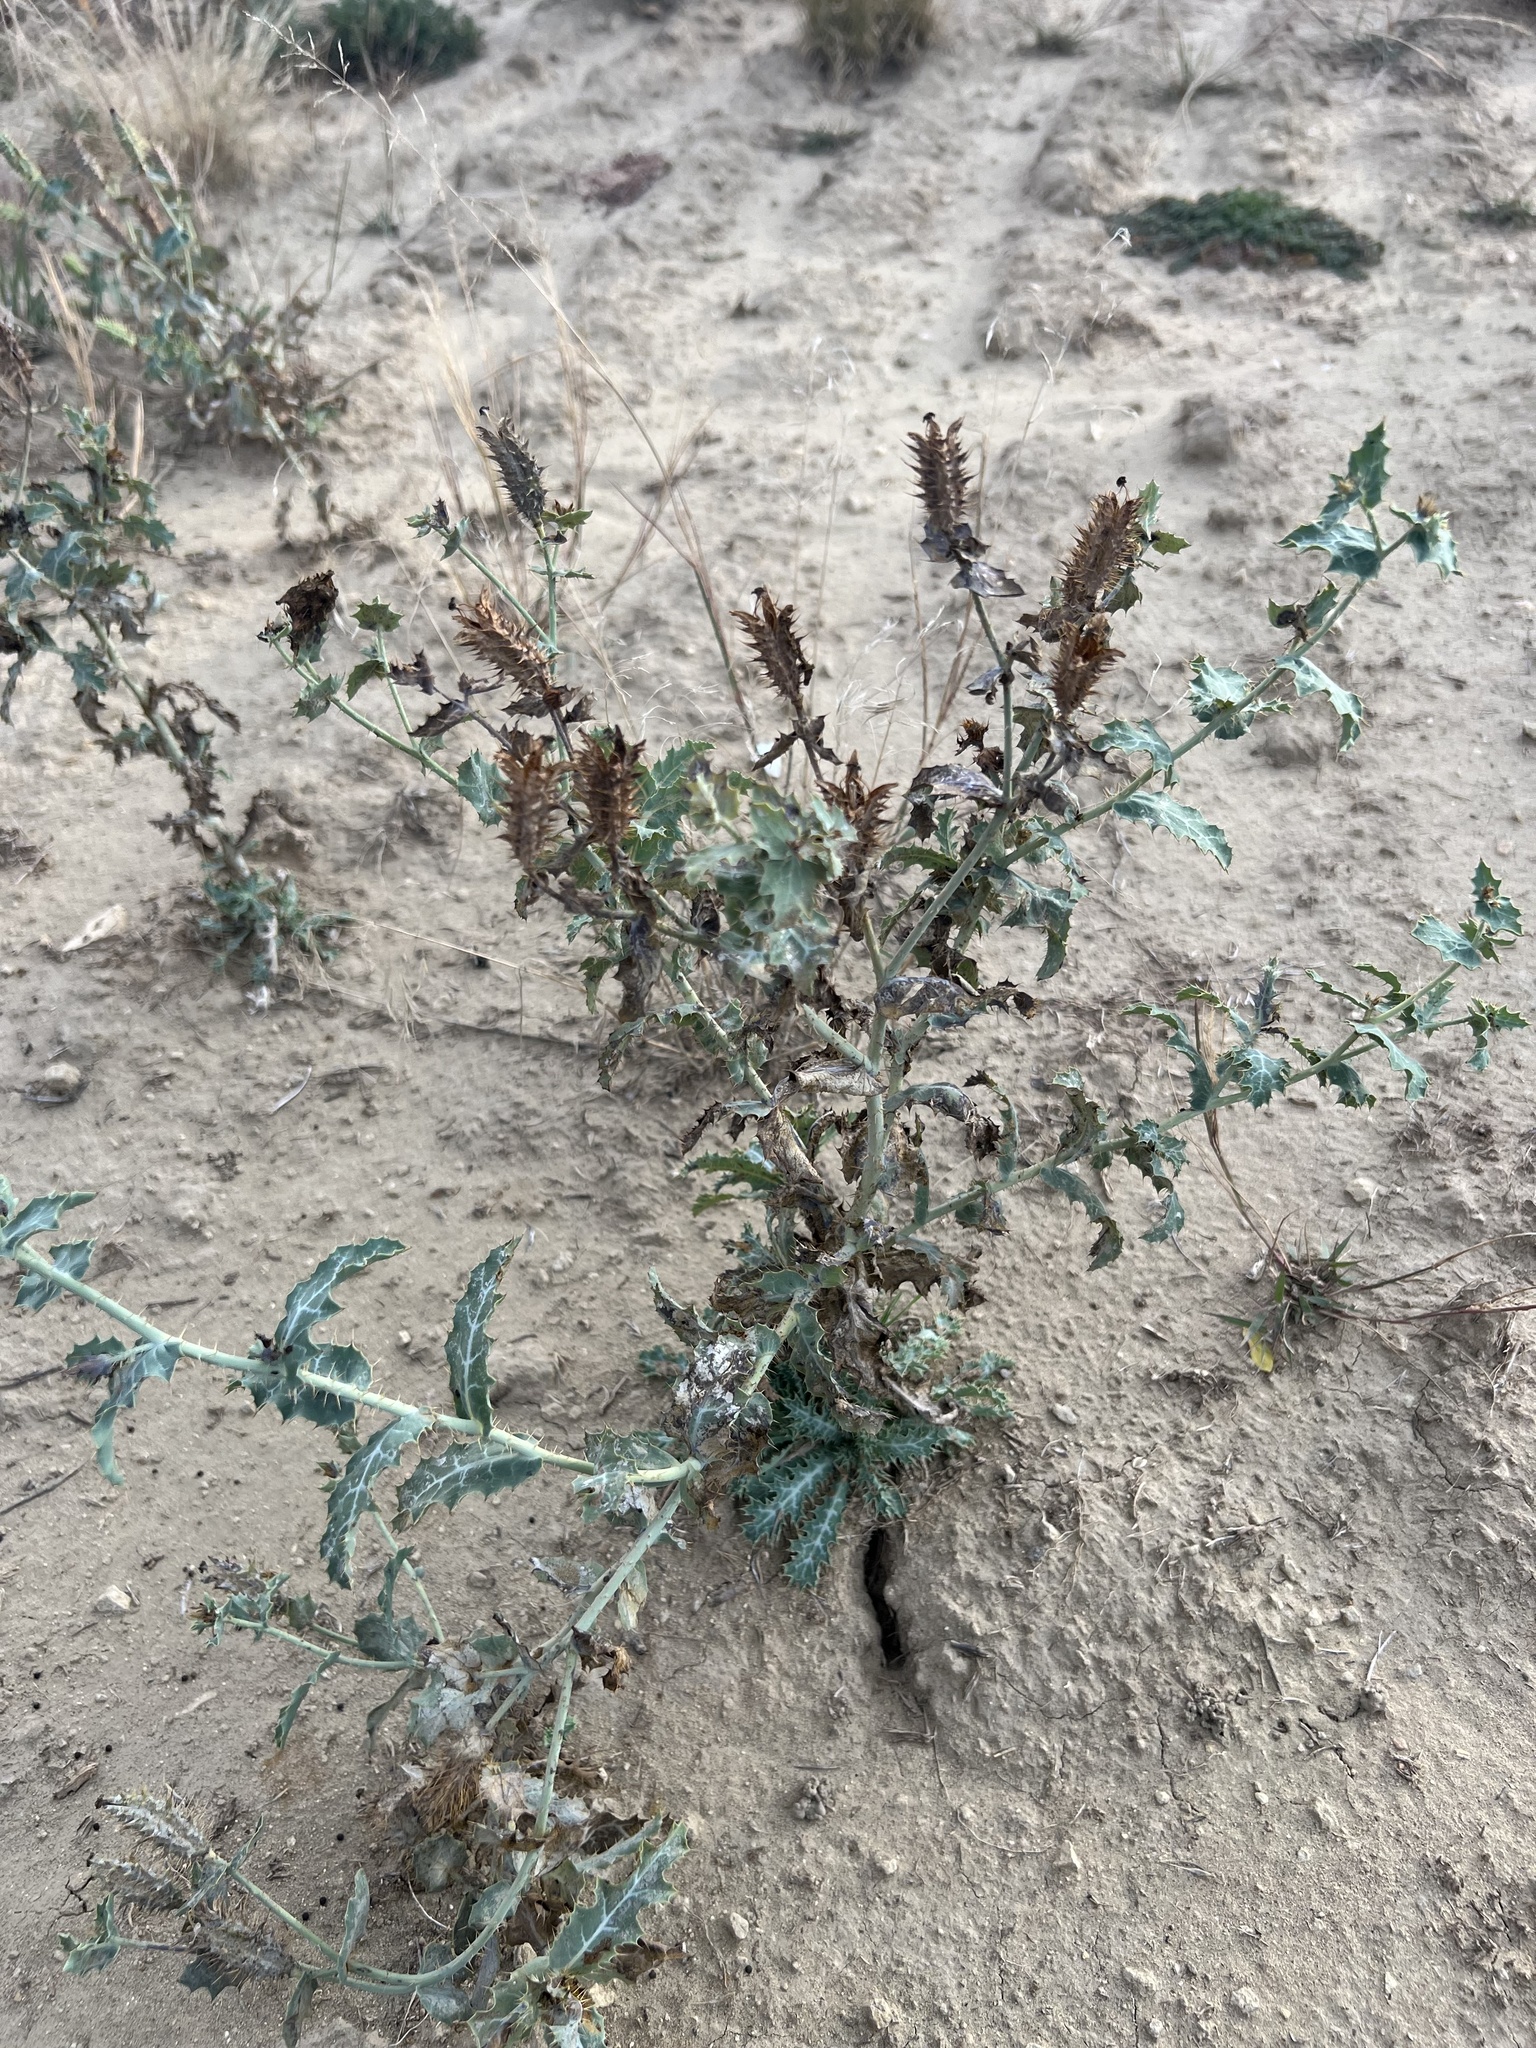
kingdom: Plantae
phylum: Tracheophyta
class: Magnoliopsida
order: Ranunculales
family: Papaveraceae
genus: Argemone
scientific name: Argemone polyanthemos
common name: Plains prickly-poppy
